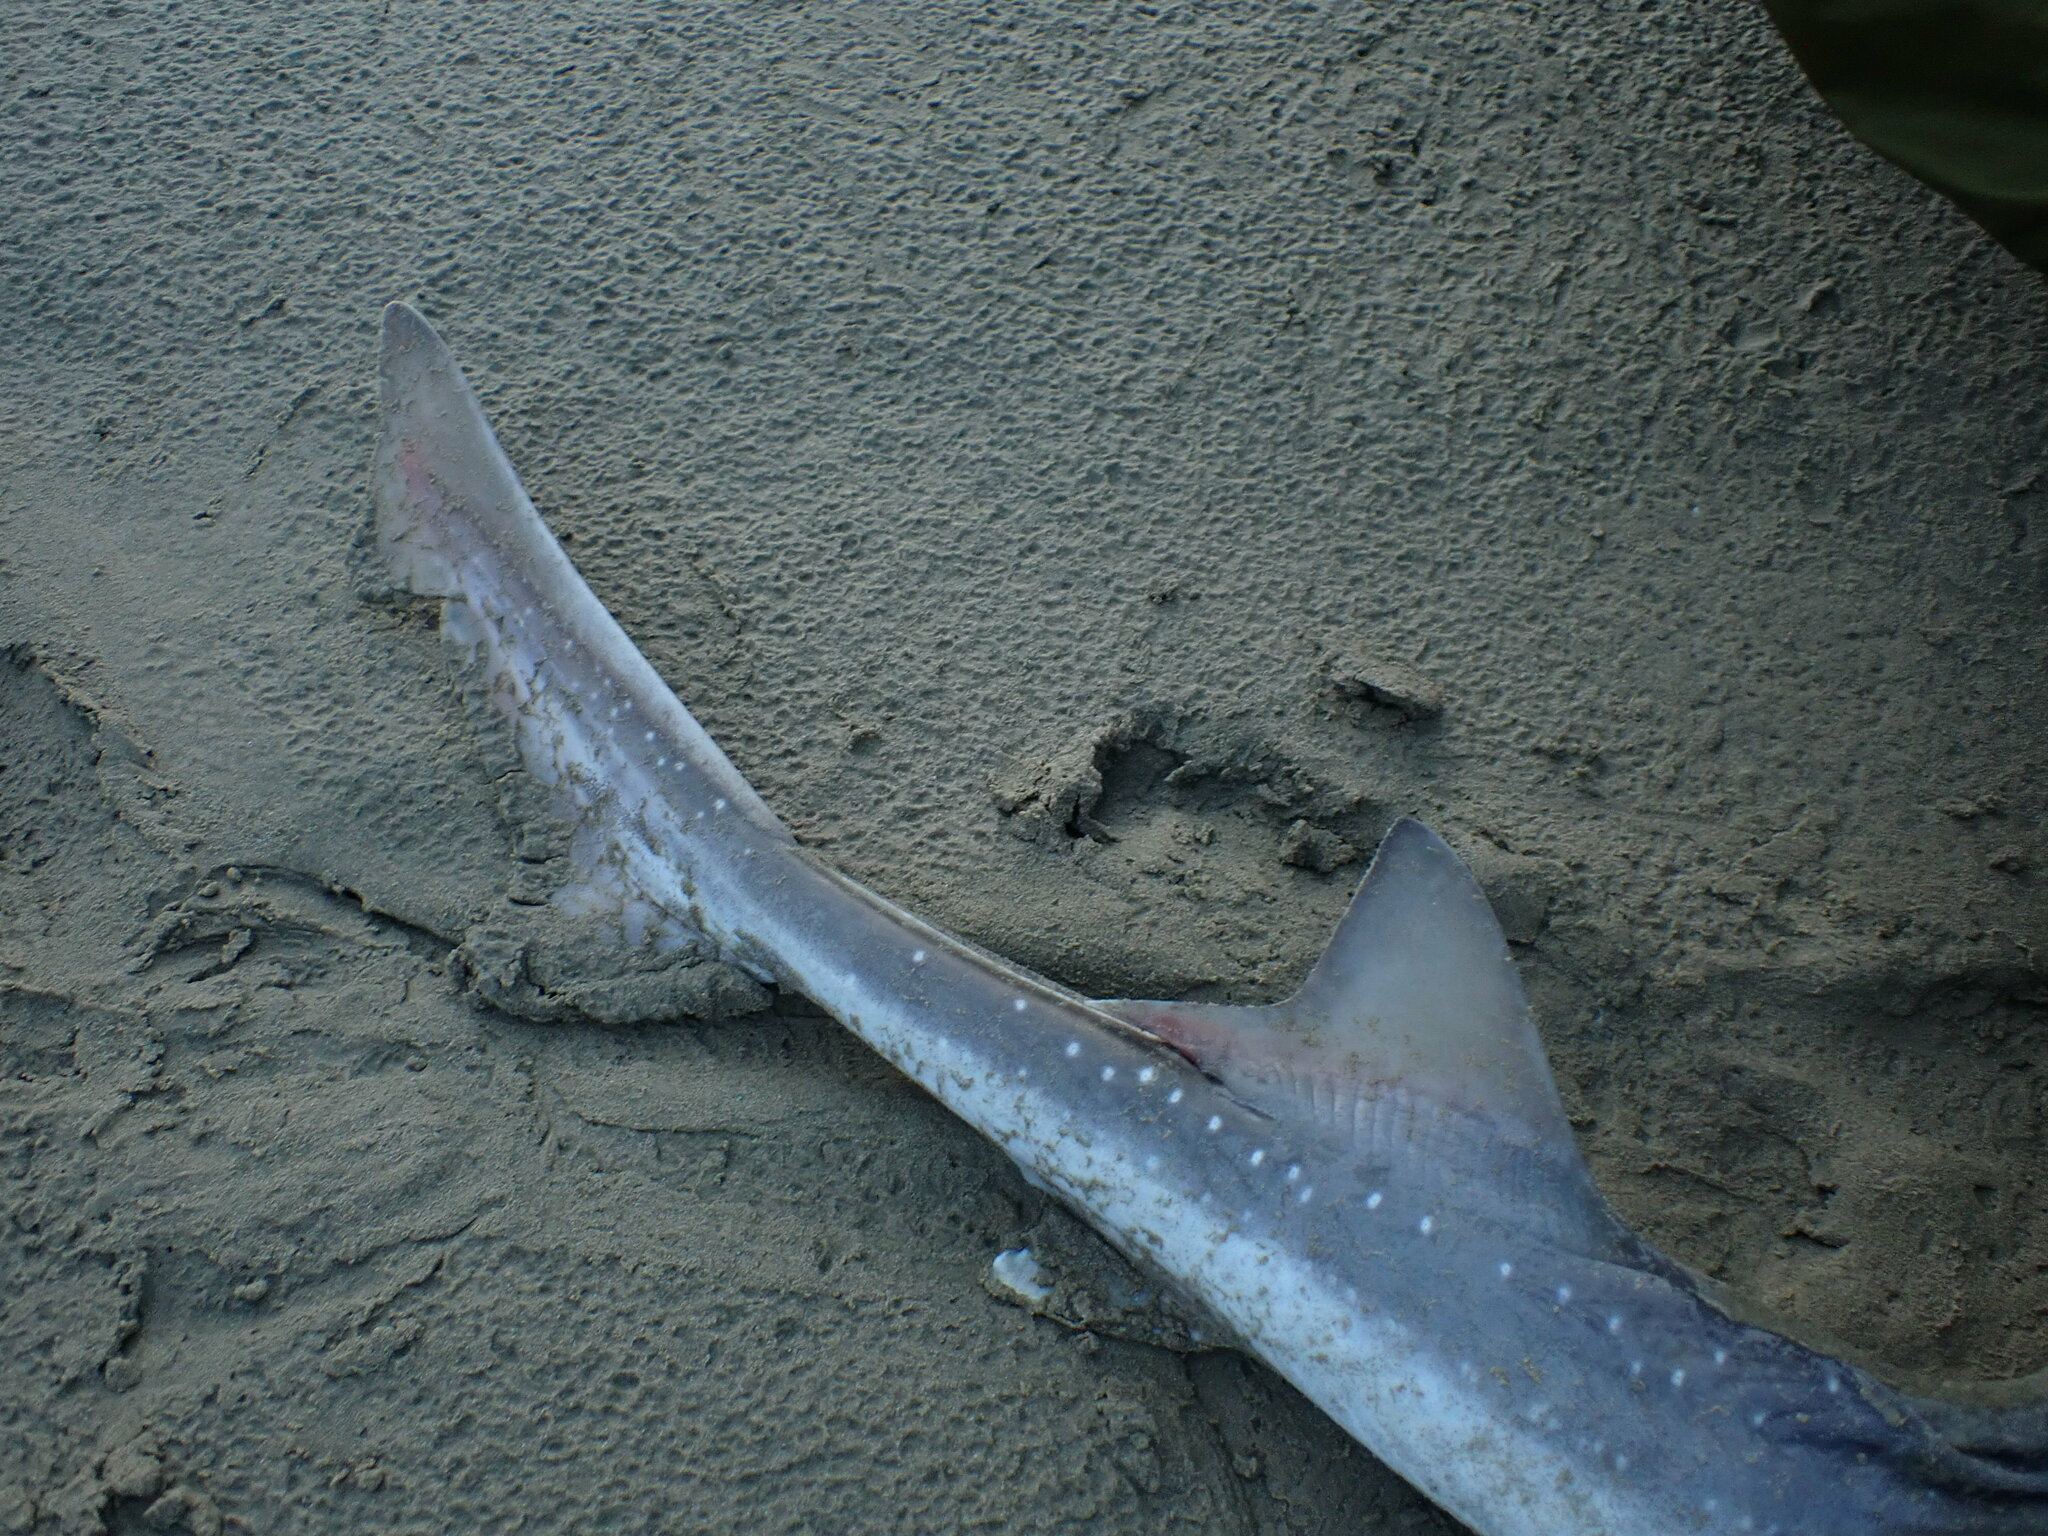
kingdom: Animalia
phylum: Chordata
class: Elasmobranchii
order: Carcharhiniformes
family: Triakidae
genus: Mustelus
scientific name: Mustelus lenticulatus
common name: Gummy shark
